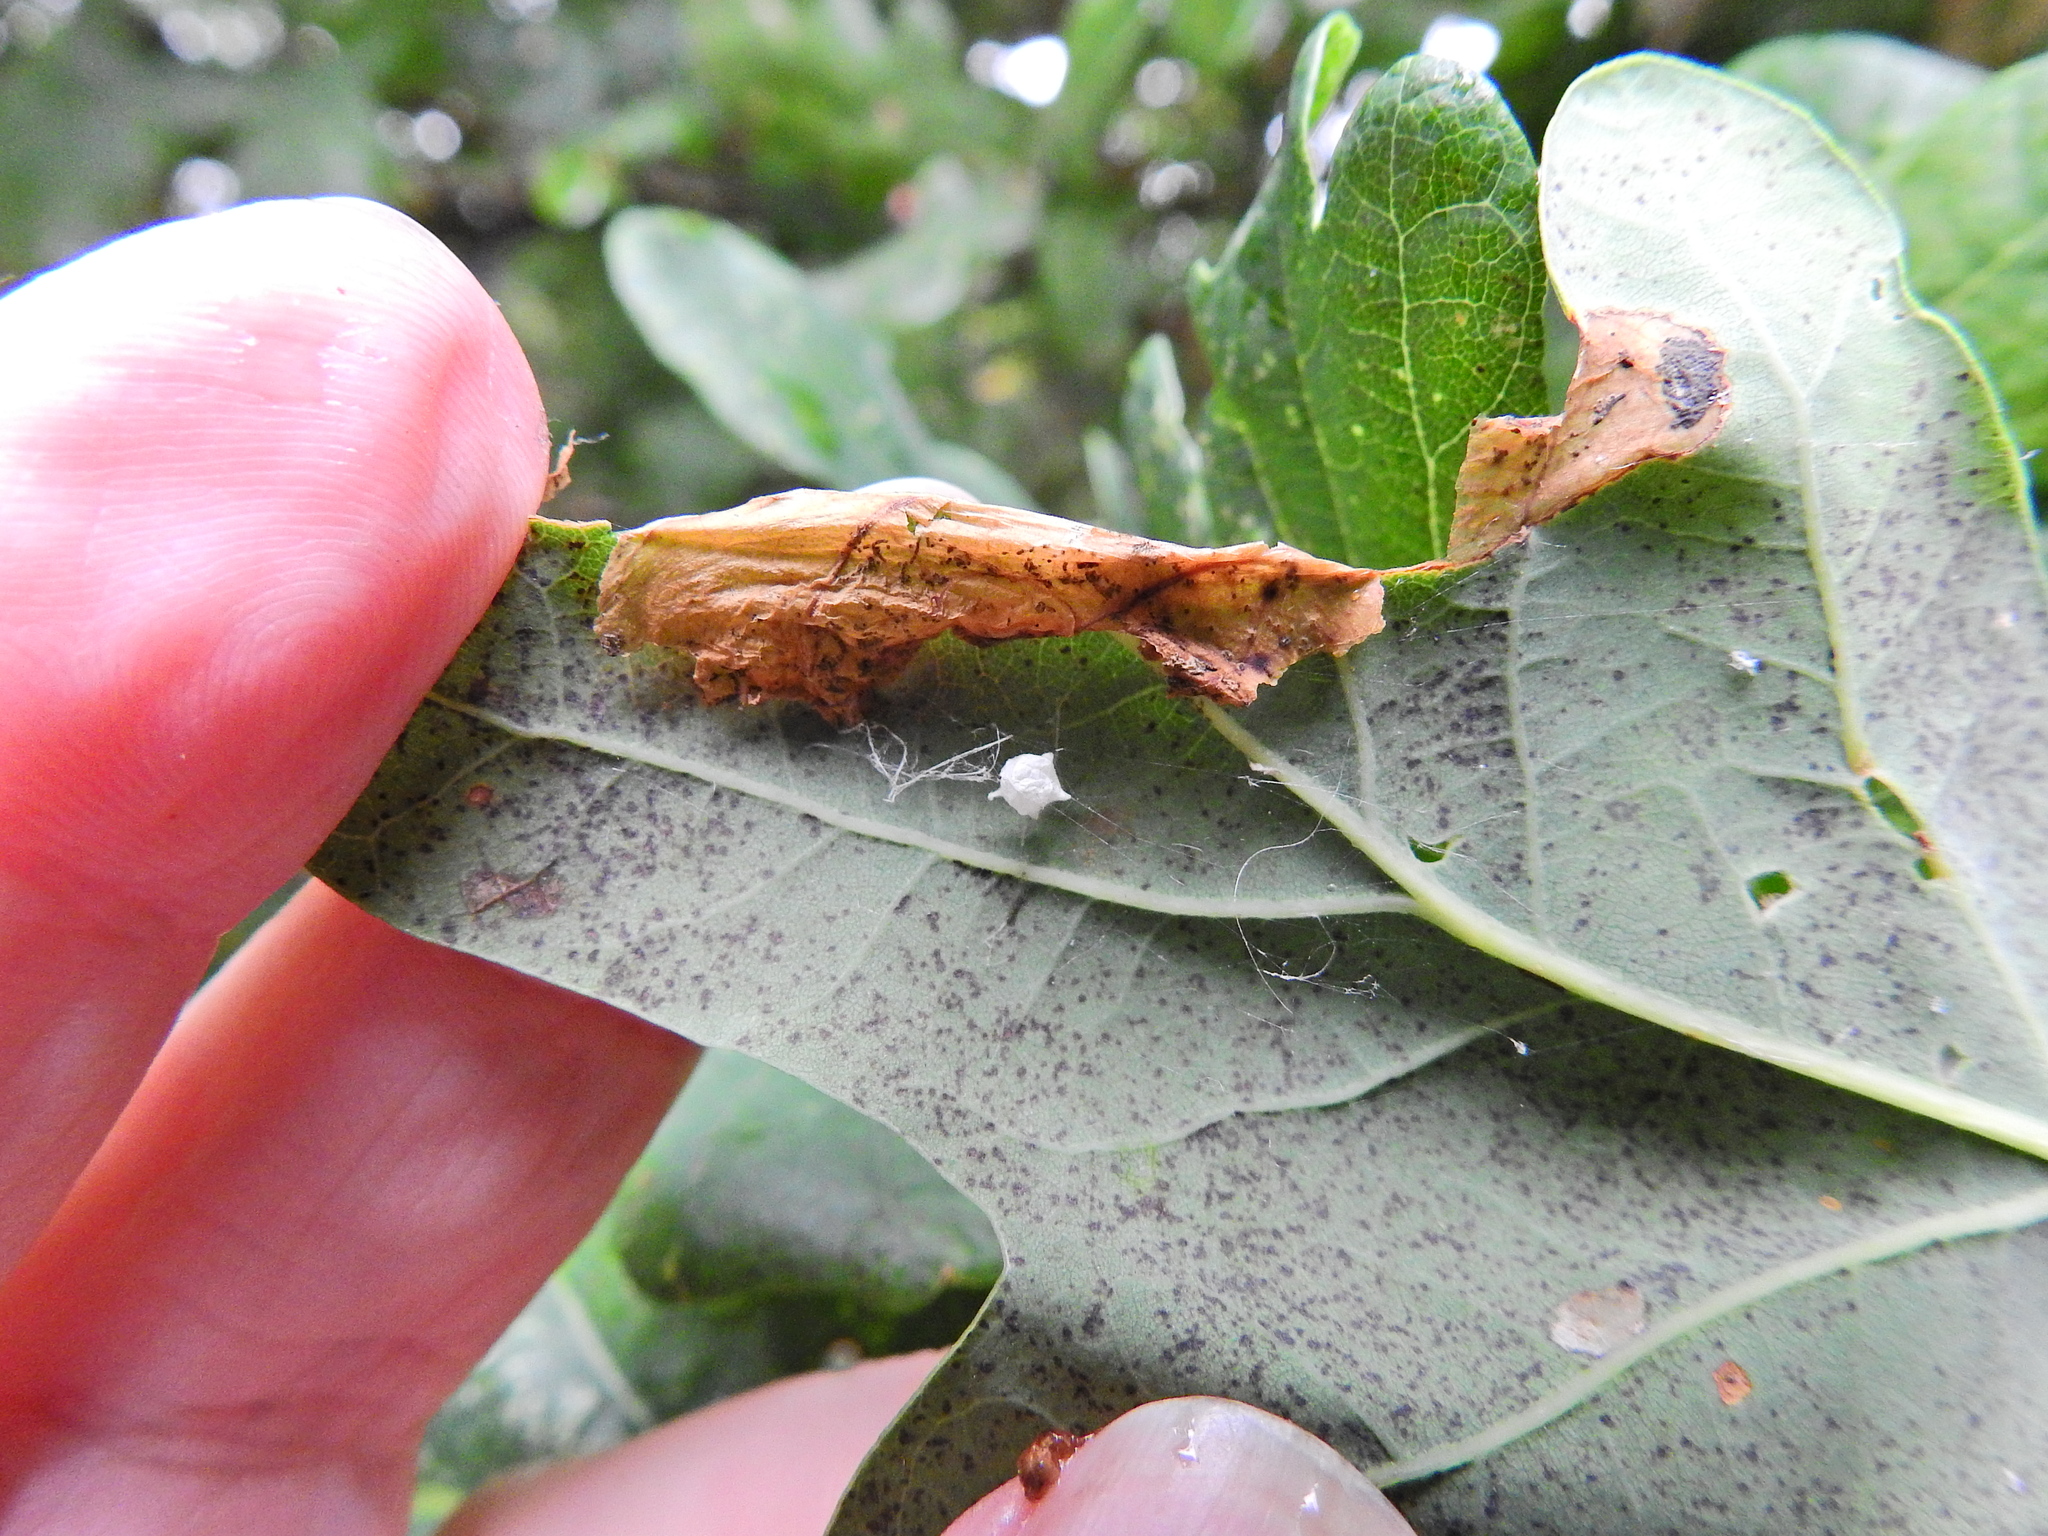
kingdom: Animalia
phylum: Arthropoda
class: Arachnida
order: Araneae
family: Theridiidae
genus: Paidiscura
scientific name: Paidiscura pallens
